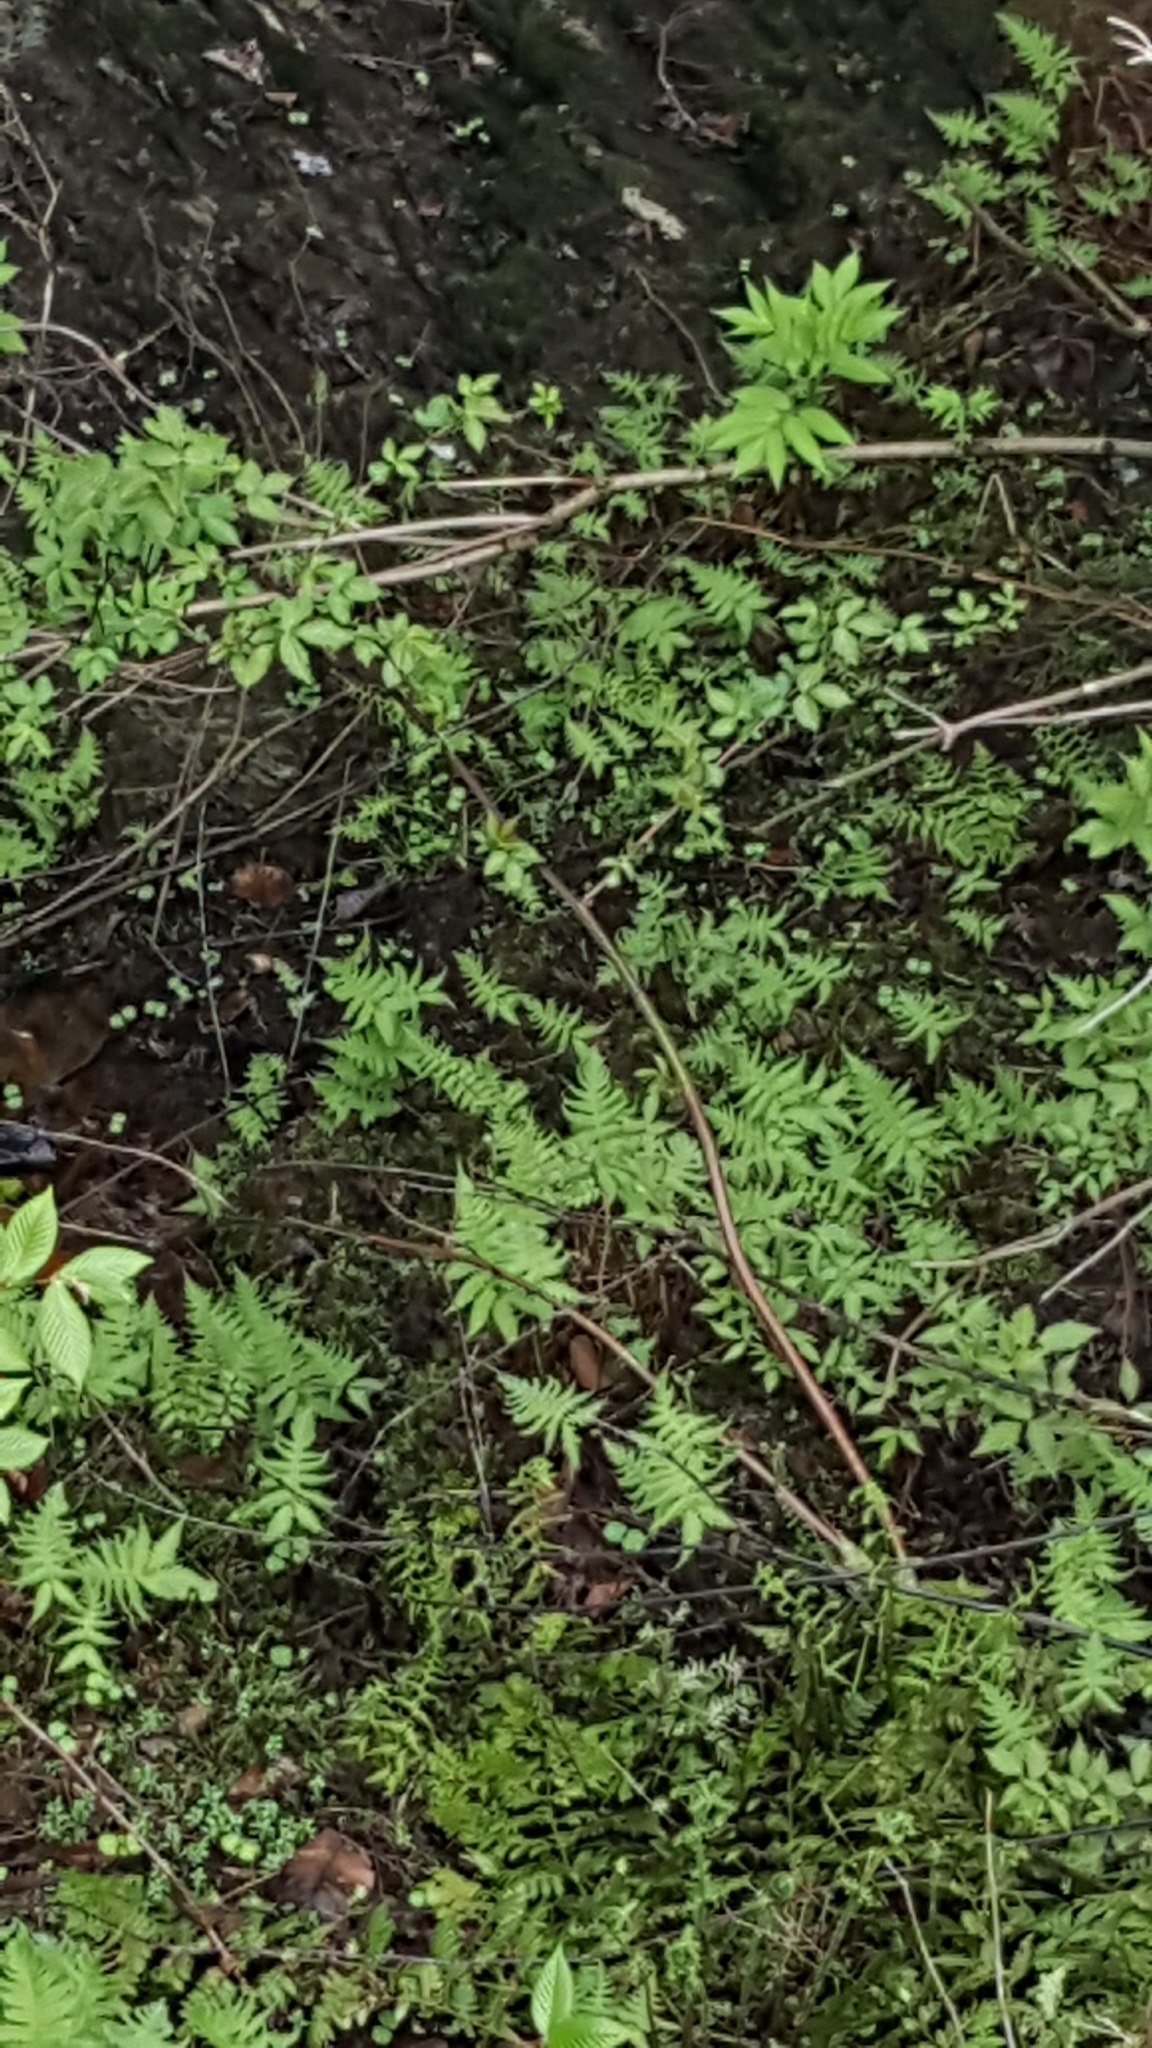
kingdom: Plantae
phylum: Tracheophyta
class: Polypodiopsida
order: Polypodiales
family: Thelypteridaceae
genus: Phegopteris
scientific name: Phegopteris connectilis
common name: Beech fern
